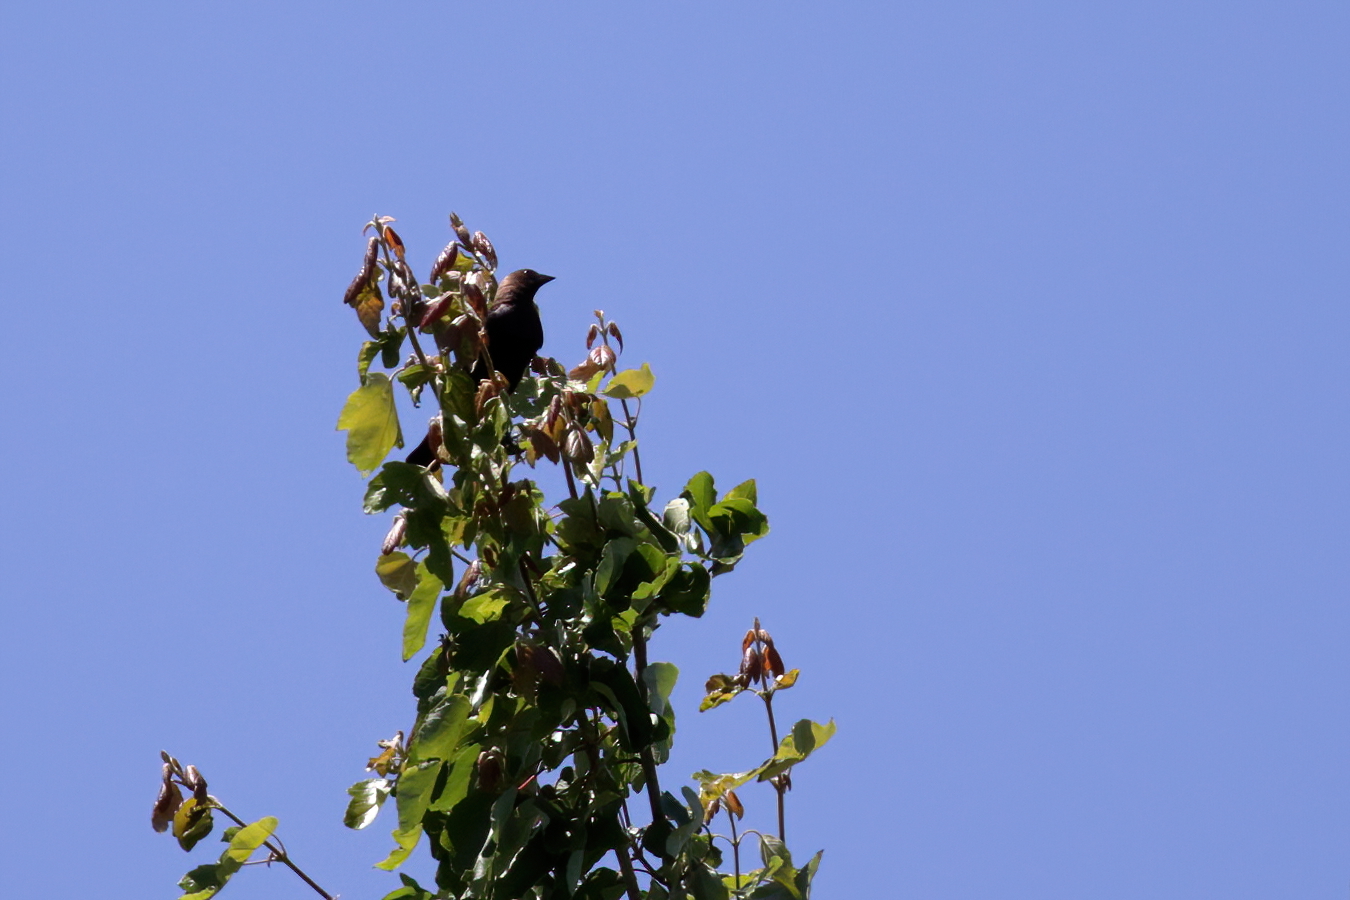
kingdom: Animalia
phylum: Chordata
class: Aves
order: Passeriformes
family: Icteridae
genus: Molothrus
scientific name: Molothrus ater
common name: Brown-headed cowbird
